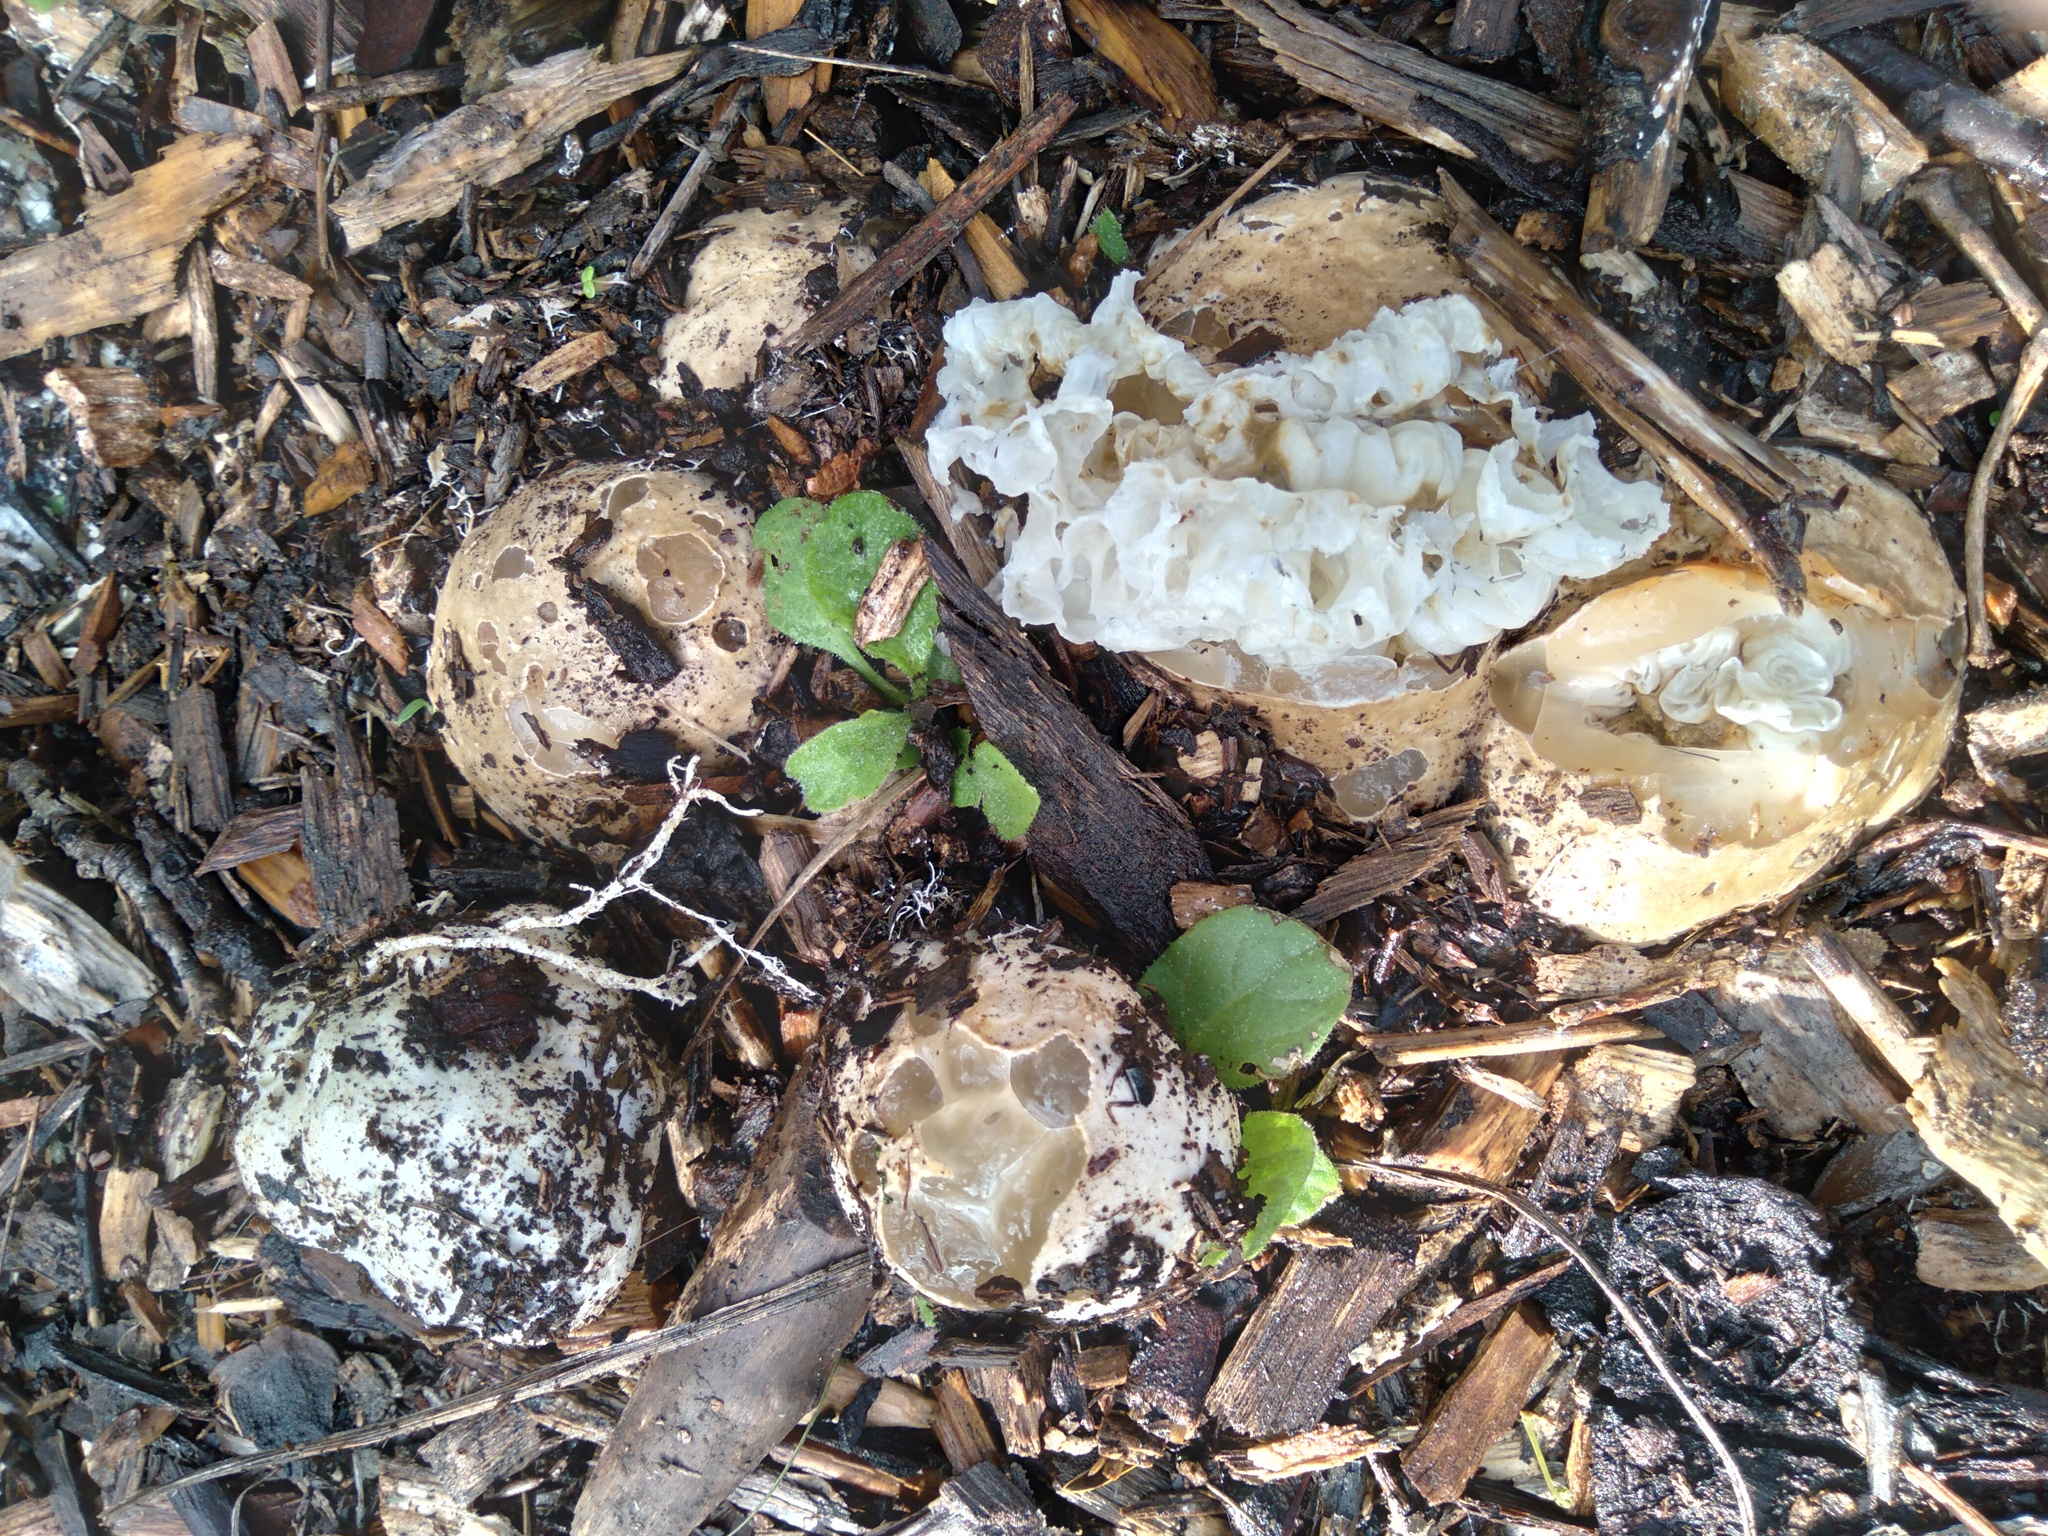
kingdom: Fungi
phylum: Basidiomycota
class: Agaricomycetes
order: Phallales
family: Phallaceae
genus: Ileodictyon
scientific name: Ileodictyon cibarium
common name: Basket fungus
